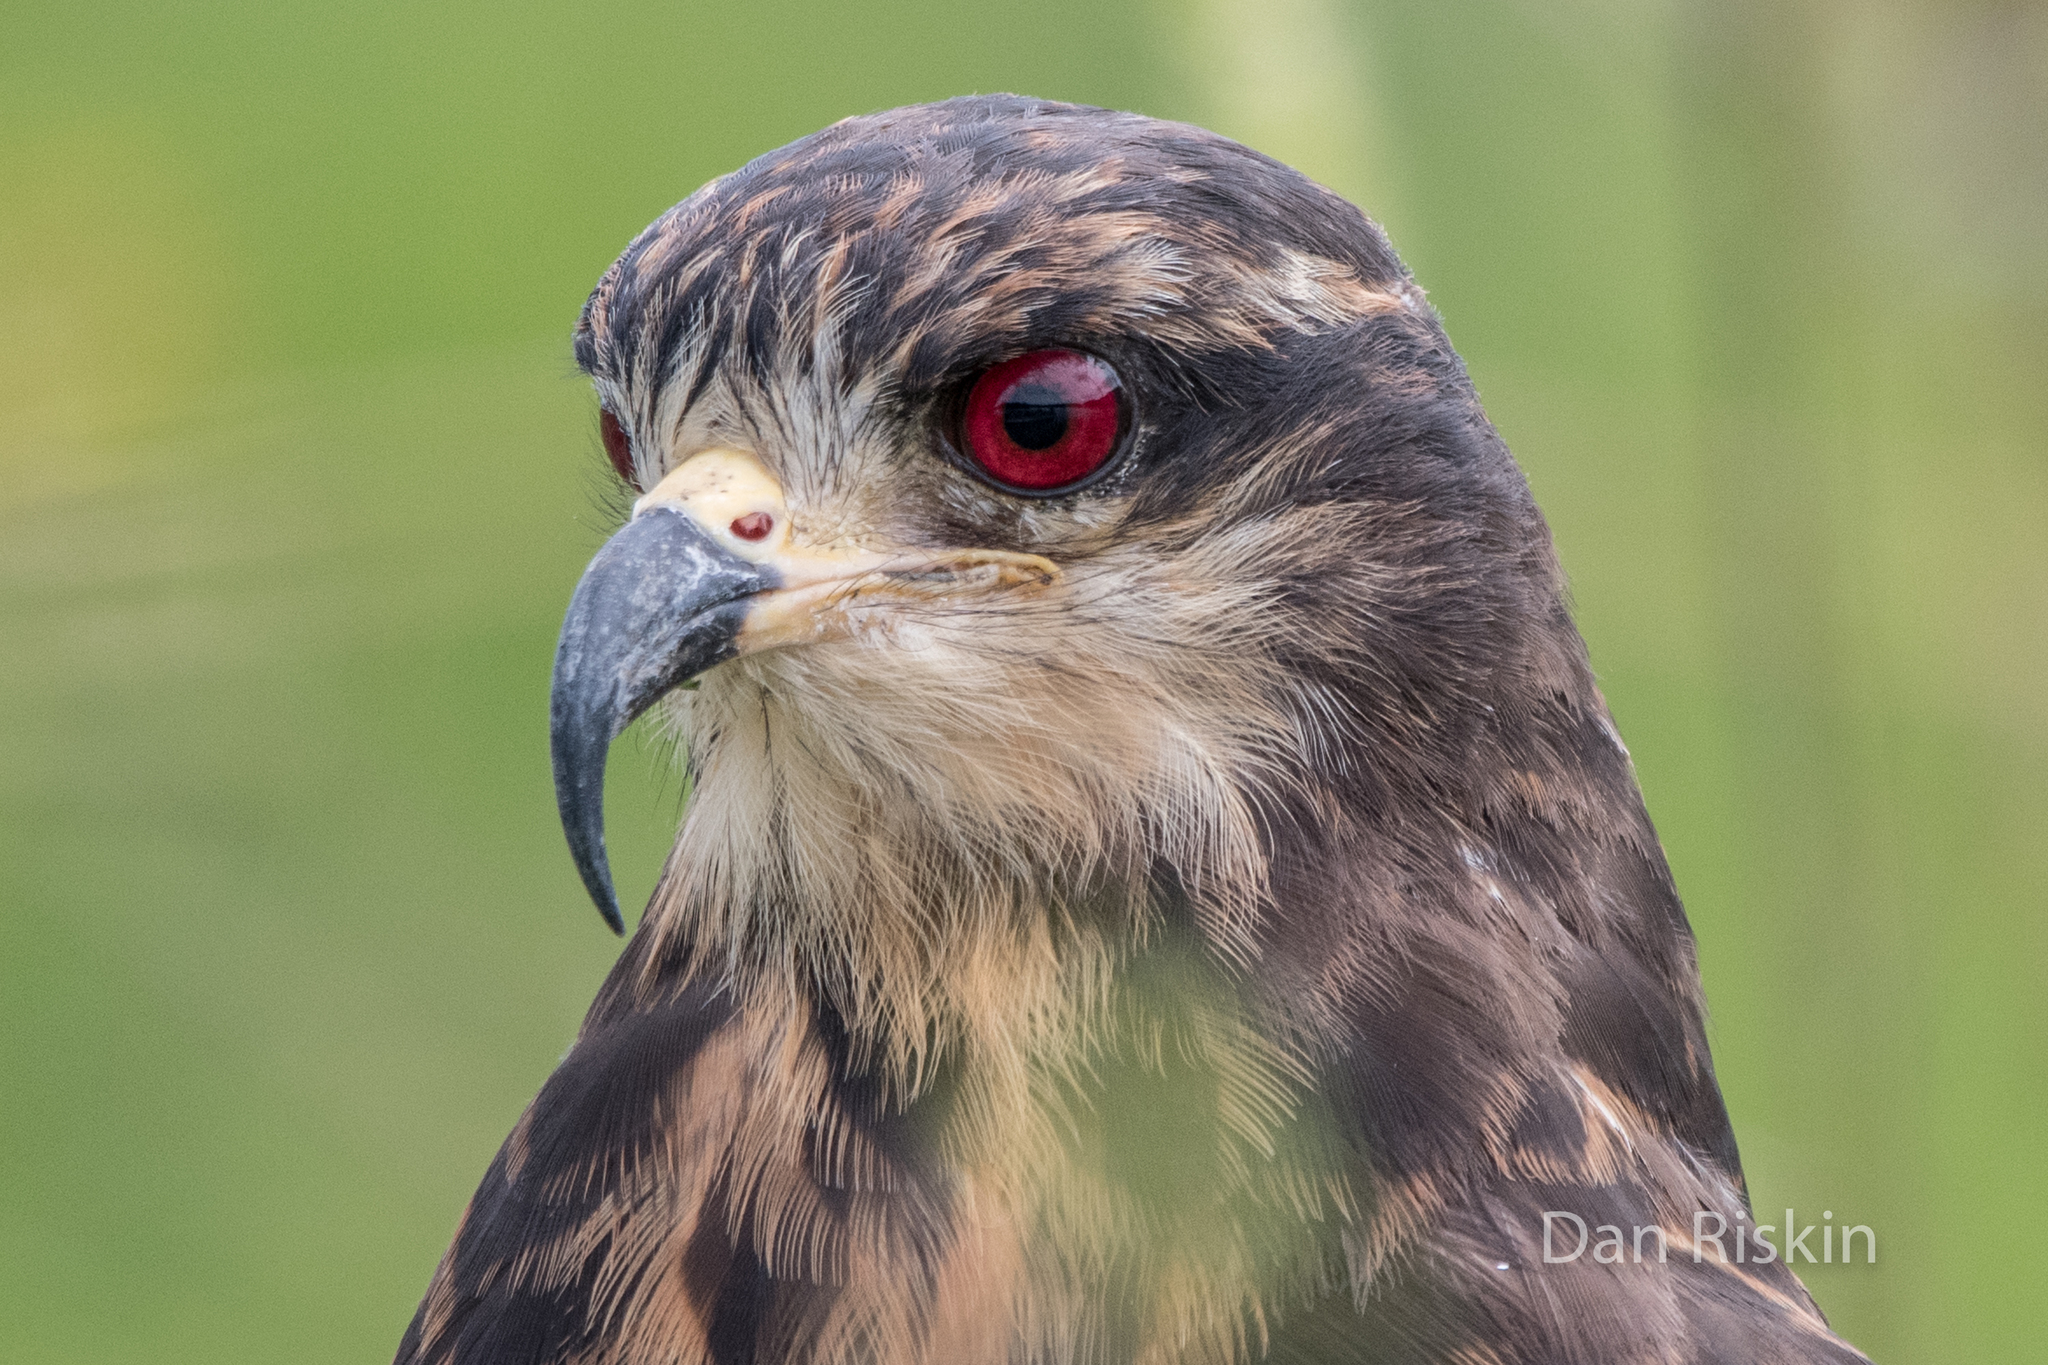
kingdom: Animalia
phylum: Chordata
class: Aves
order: Accipitriformes
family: Accipitridae
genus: Rostrhamus
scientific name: Rostrhamus sociabilis
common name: Snail kite
